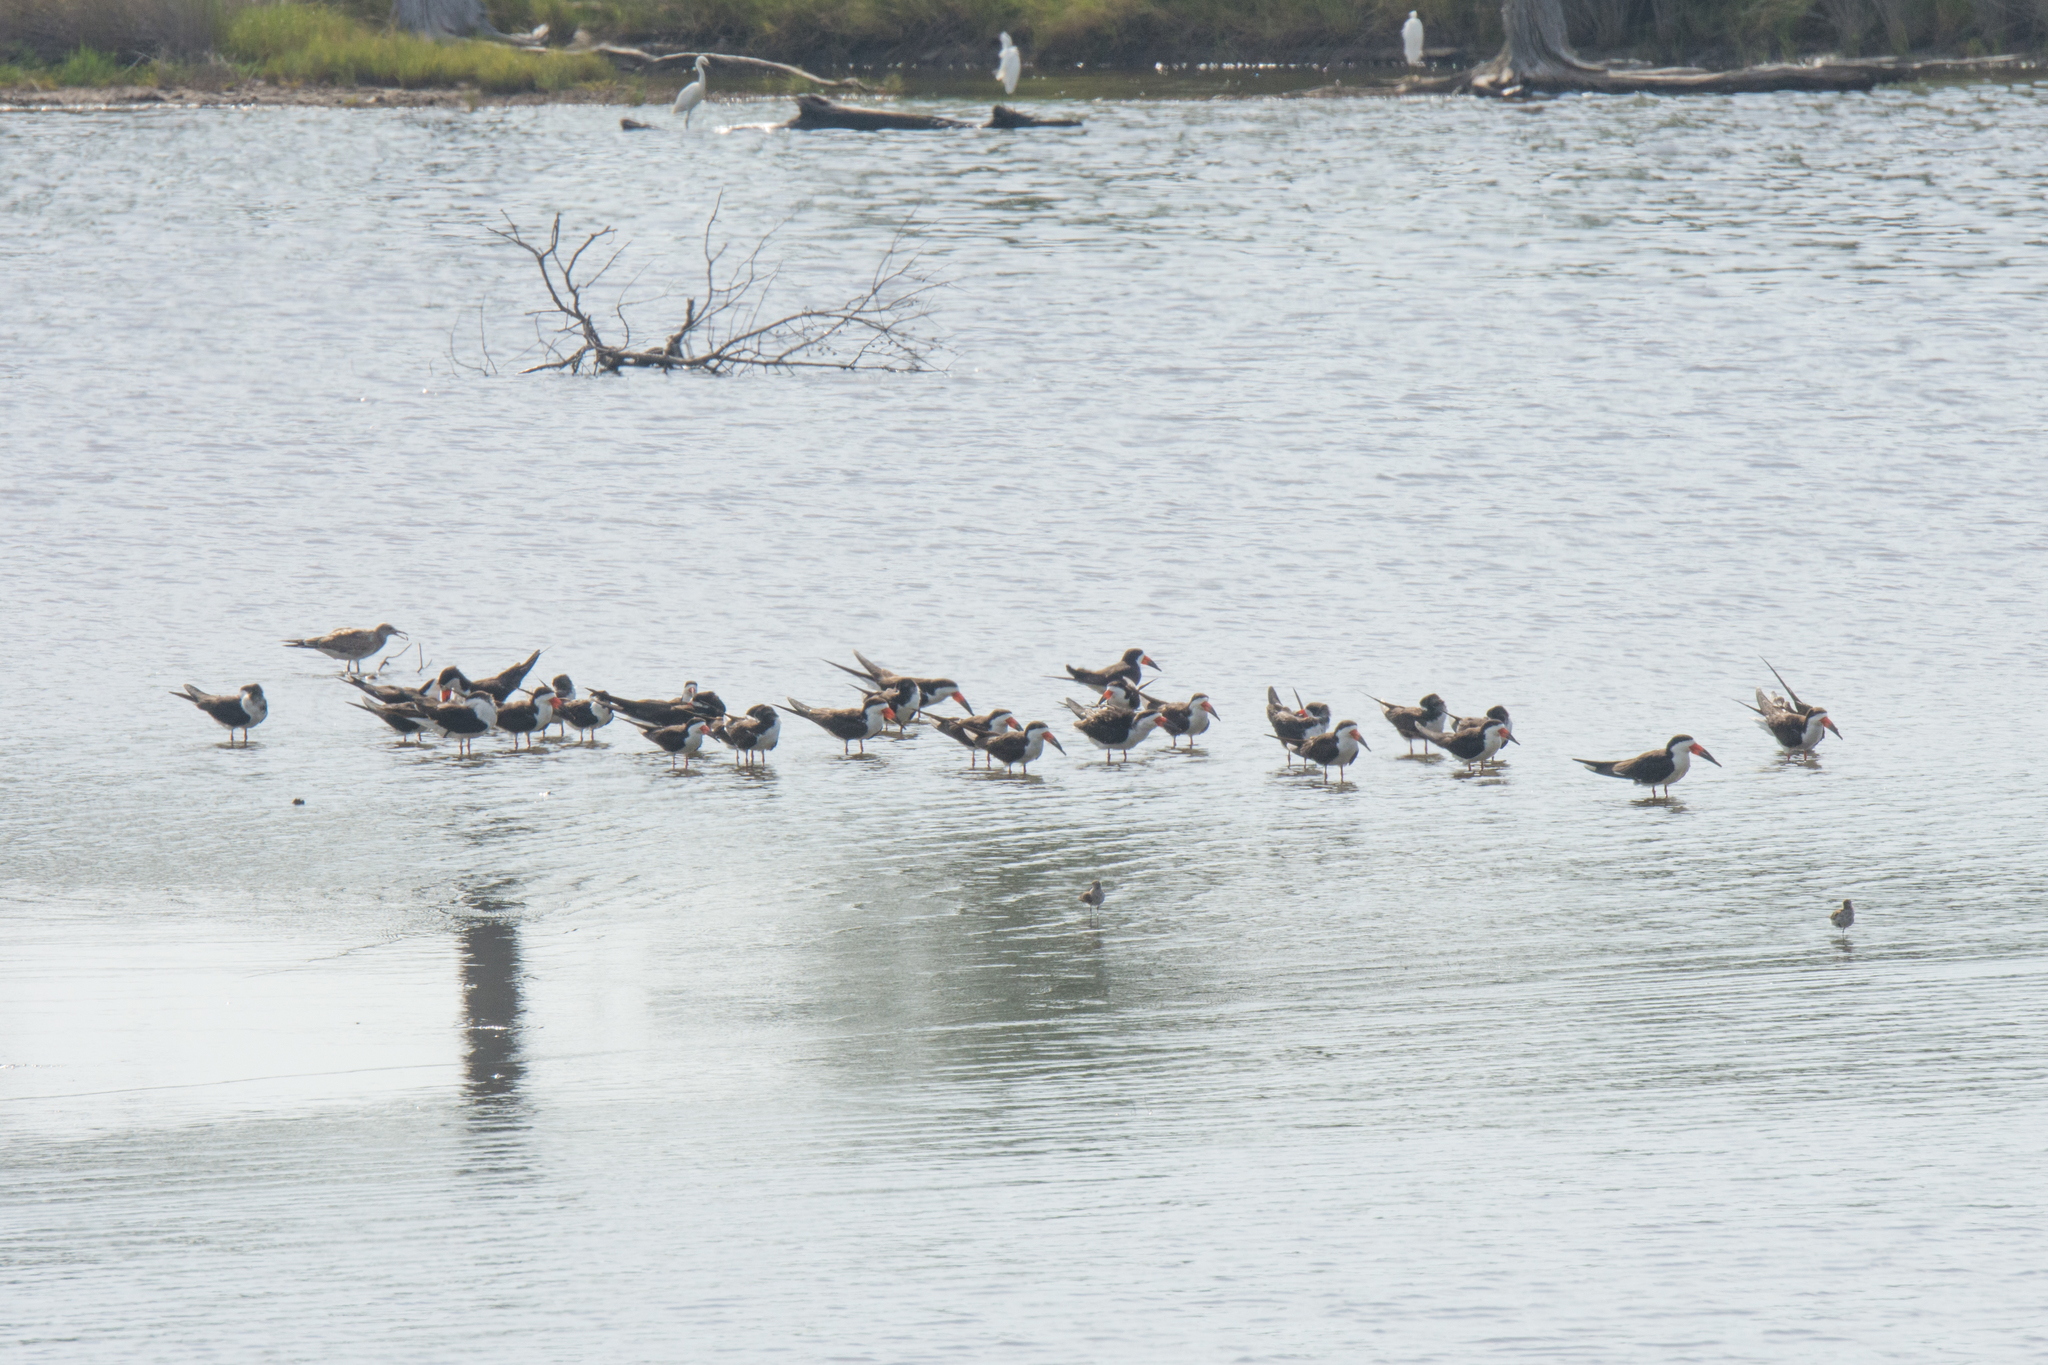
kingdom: Animalia
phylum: Chordata
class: Aves
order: Charadriiformes
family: Laridae
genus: Rynchops
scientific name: Rynchops niger
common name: Black skimmer
